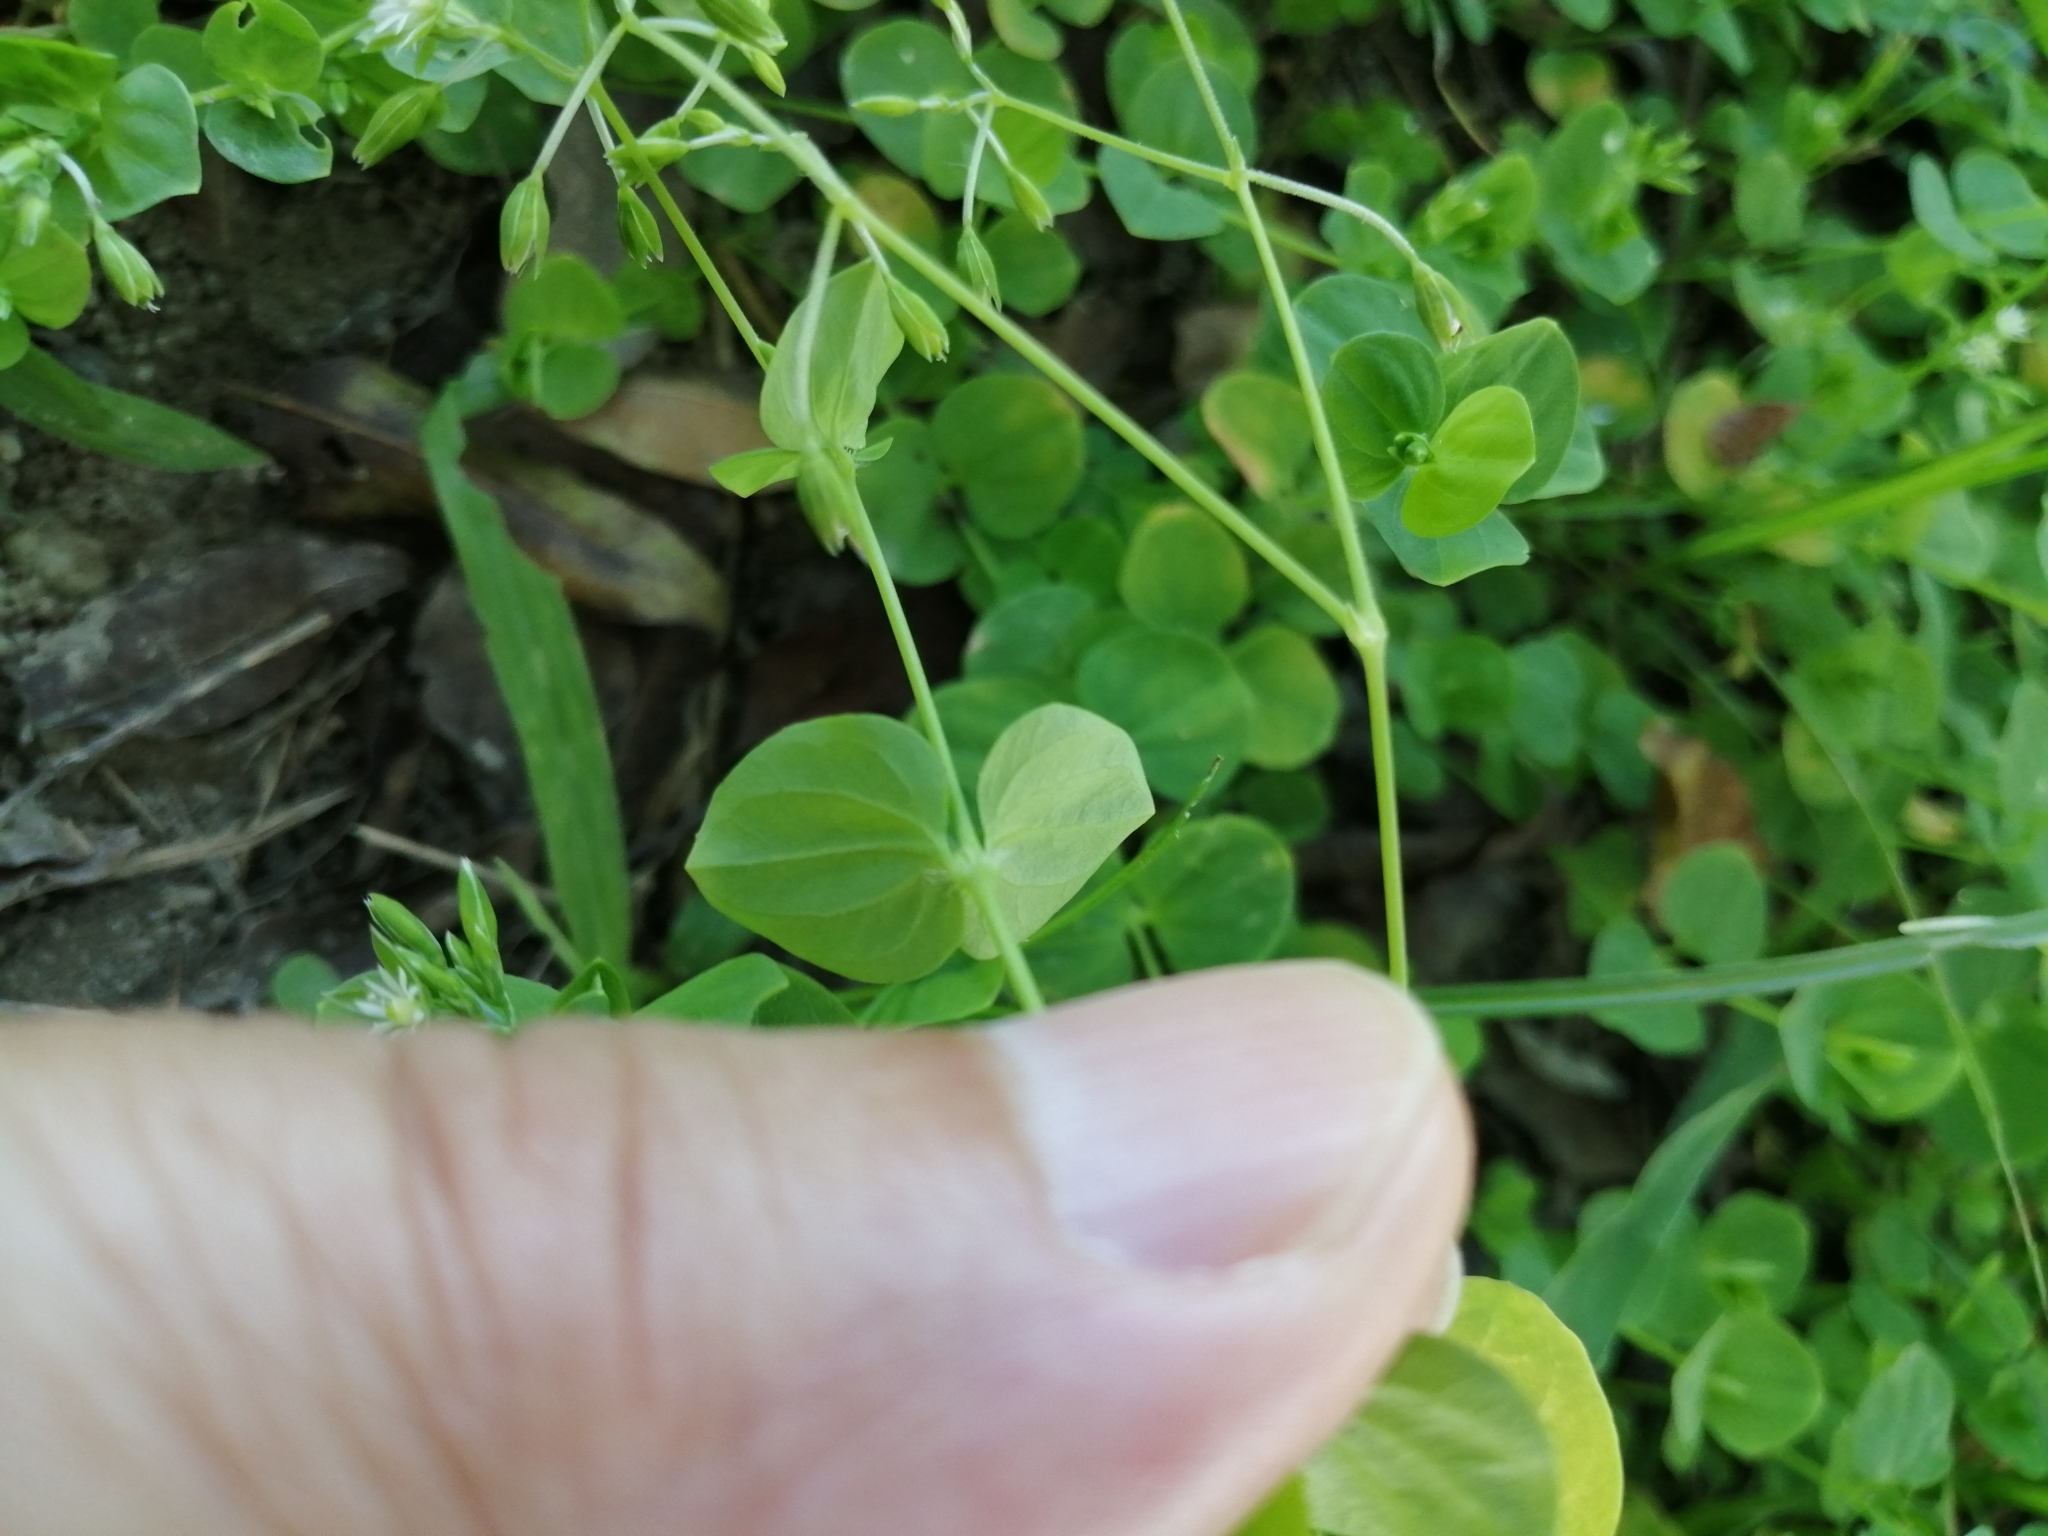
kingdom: Plantae
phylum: Tracheophyta
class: Magnoliopsida
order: Caryophyllales
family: Caryophyllaceae
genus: Drymaria
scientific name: Drymaria cordata
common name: Whitesnow
